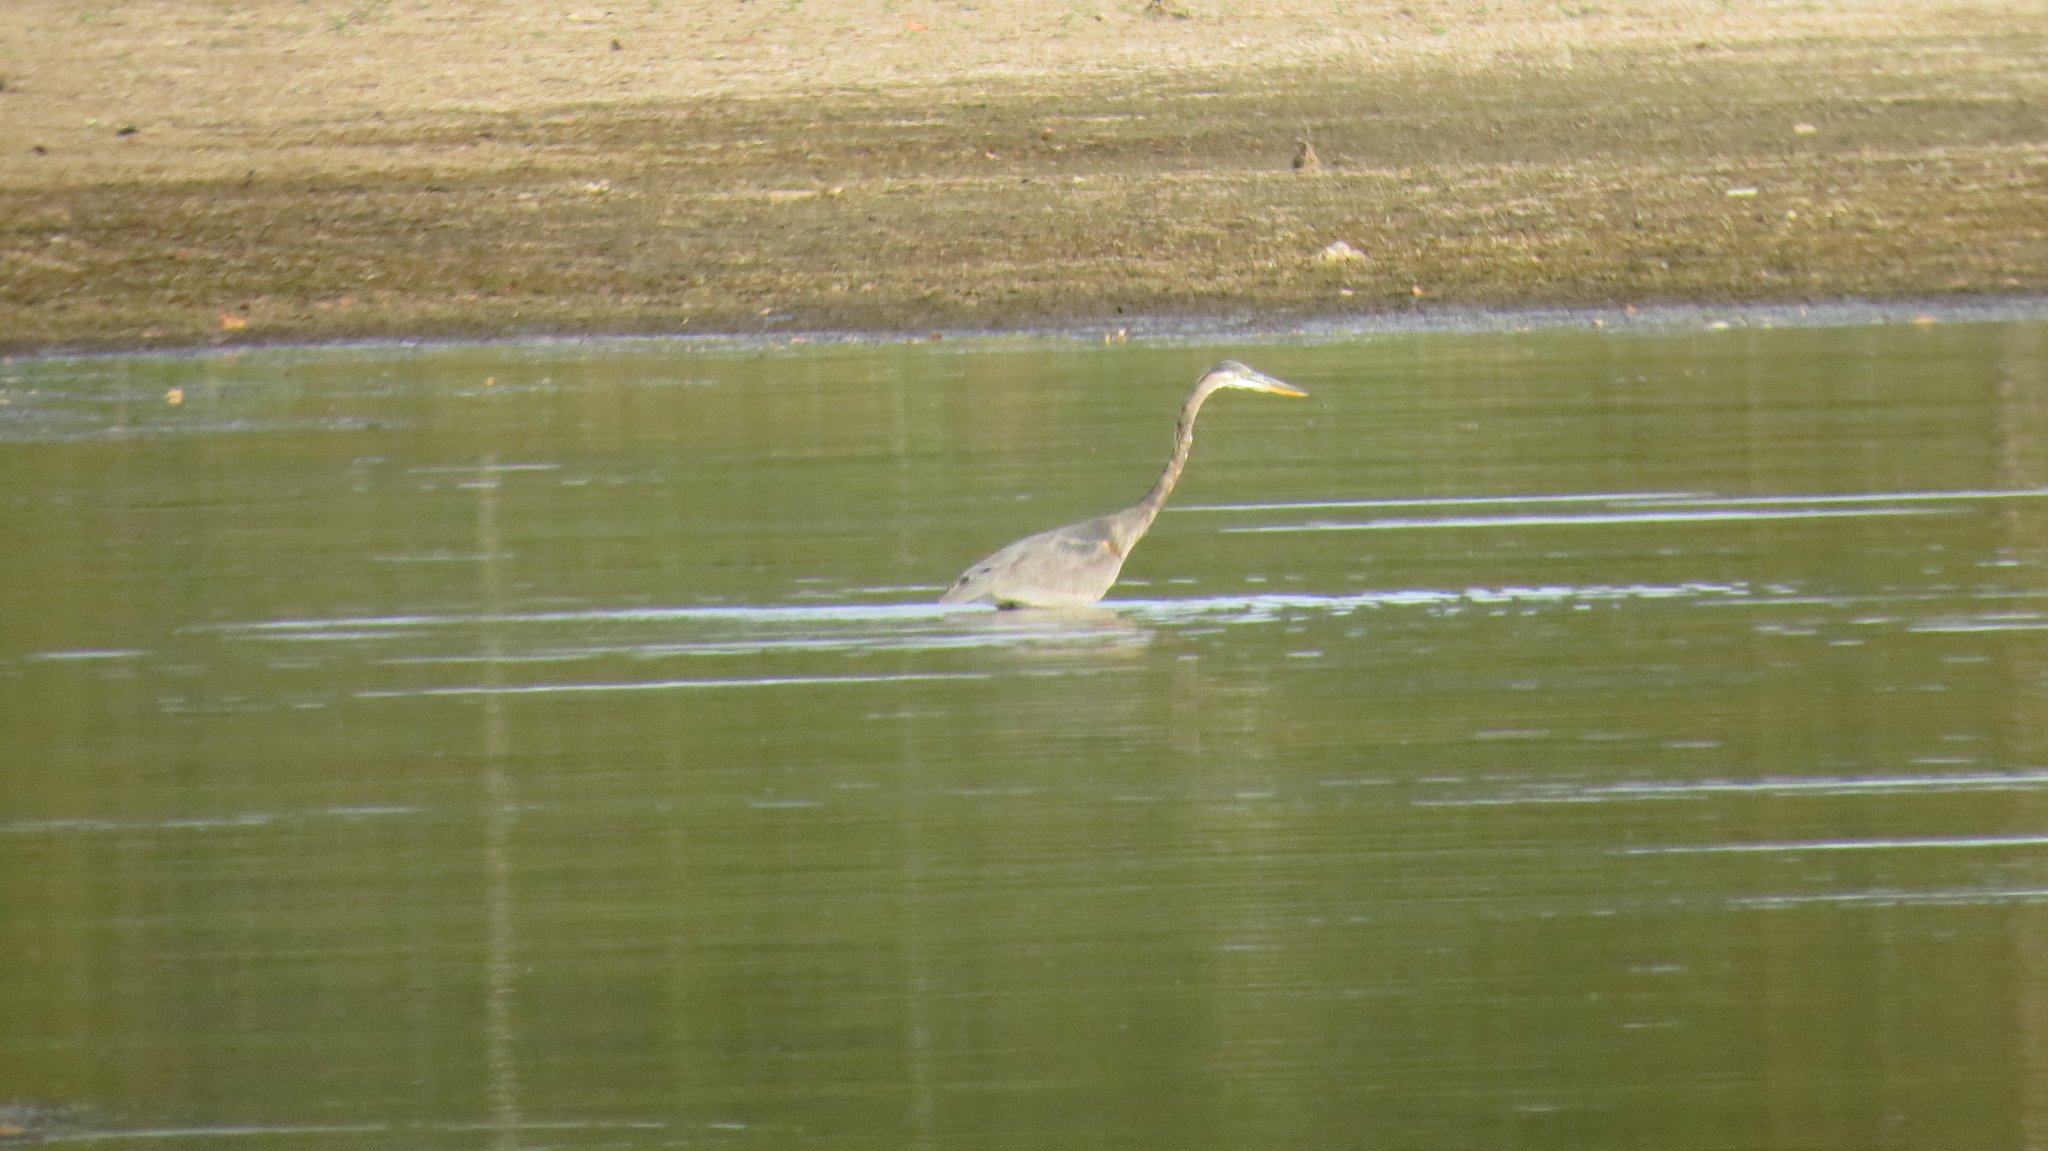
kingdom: Animalia
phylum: Chordata
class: Aves
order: Pelecaniformes
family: Ardeidae
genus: Ardea
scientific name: Ardea herodias
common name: Great blue heron
